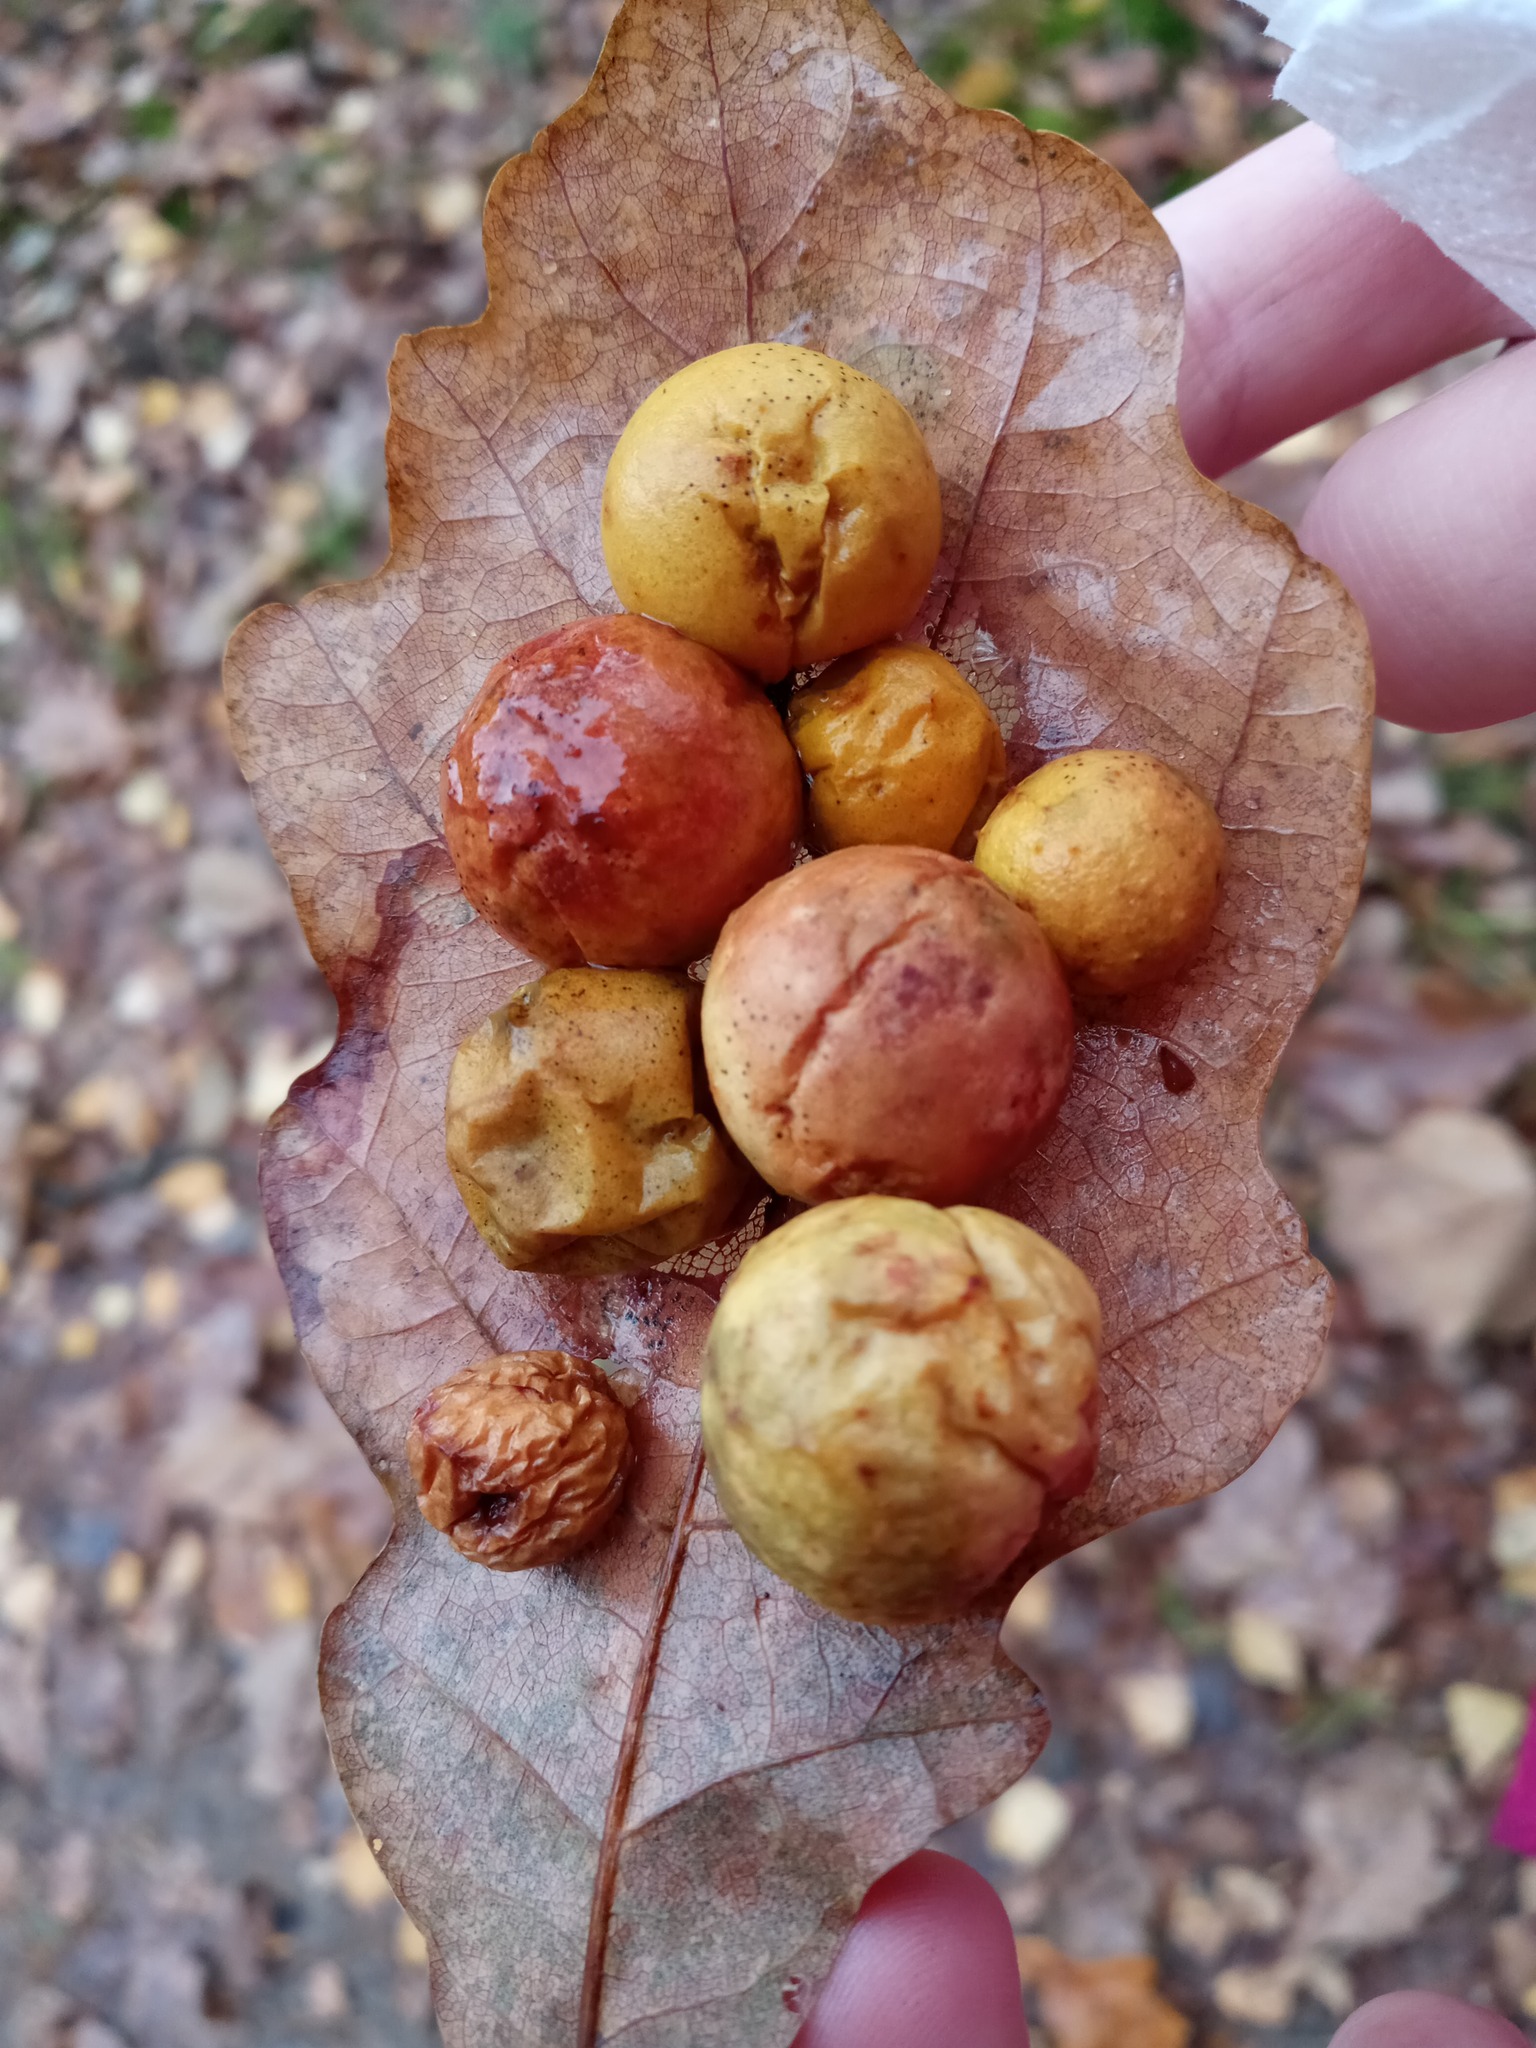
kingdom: Animalia
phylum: Arthropoda
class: Insecta
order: Hymenoptera
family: Cynipidae
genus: Cynips
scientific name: Cynips quercusfolii
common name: Cherry gall
